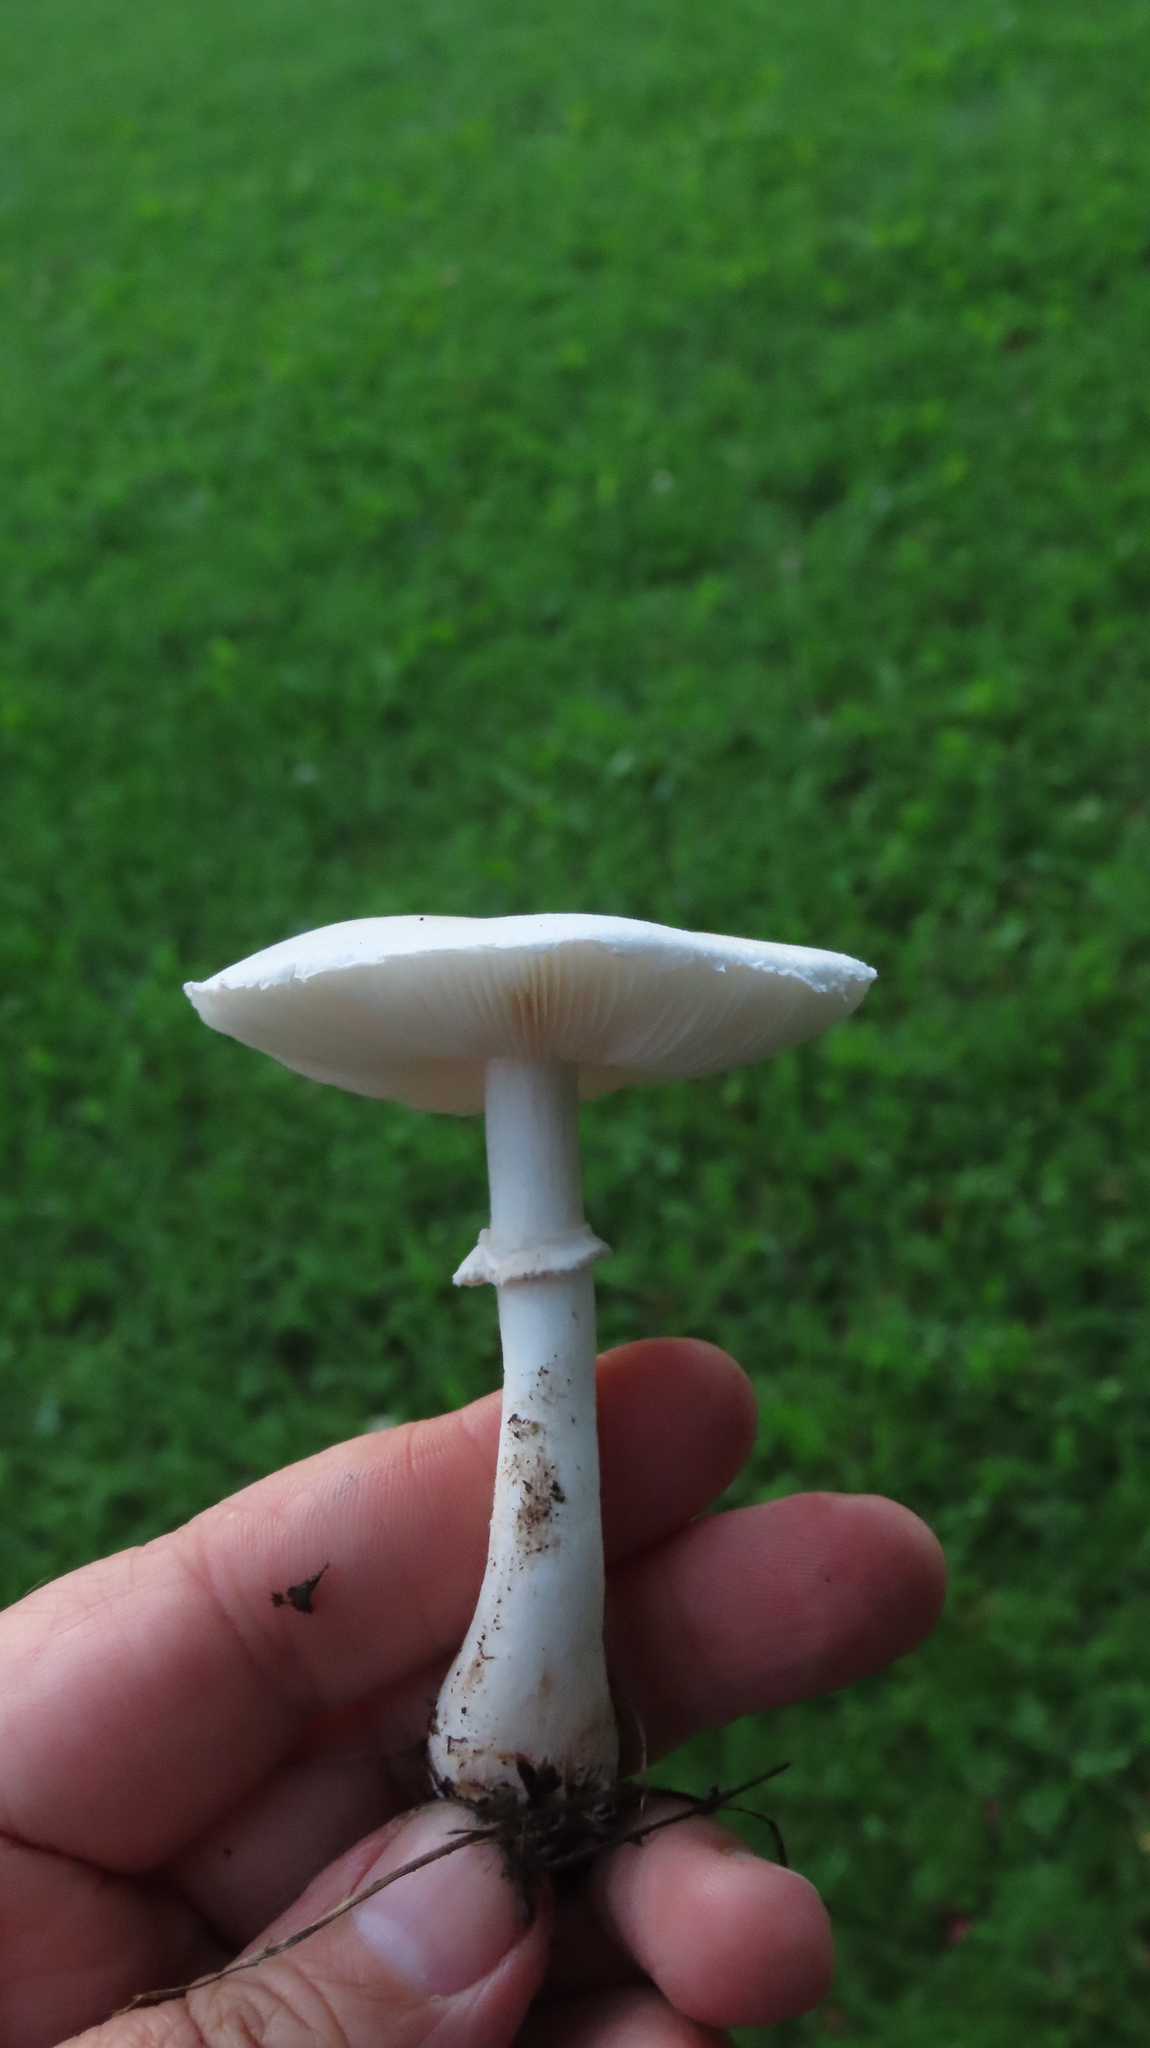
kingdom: Fungi
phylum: Basidiomycota
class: Agaricomycetes
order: Agaricales
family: Agaricaceae
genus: Leucoagaricus
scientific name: Leucoagaricus leucothites
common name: White dapperling
